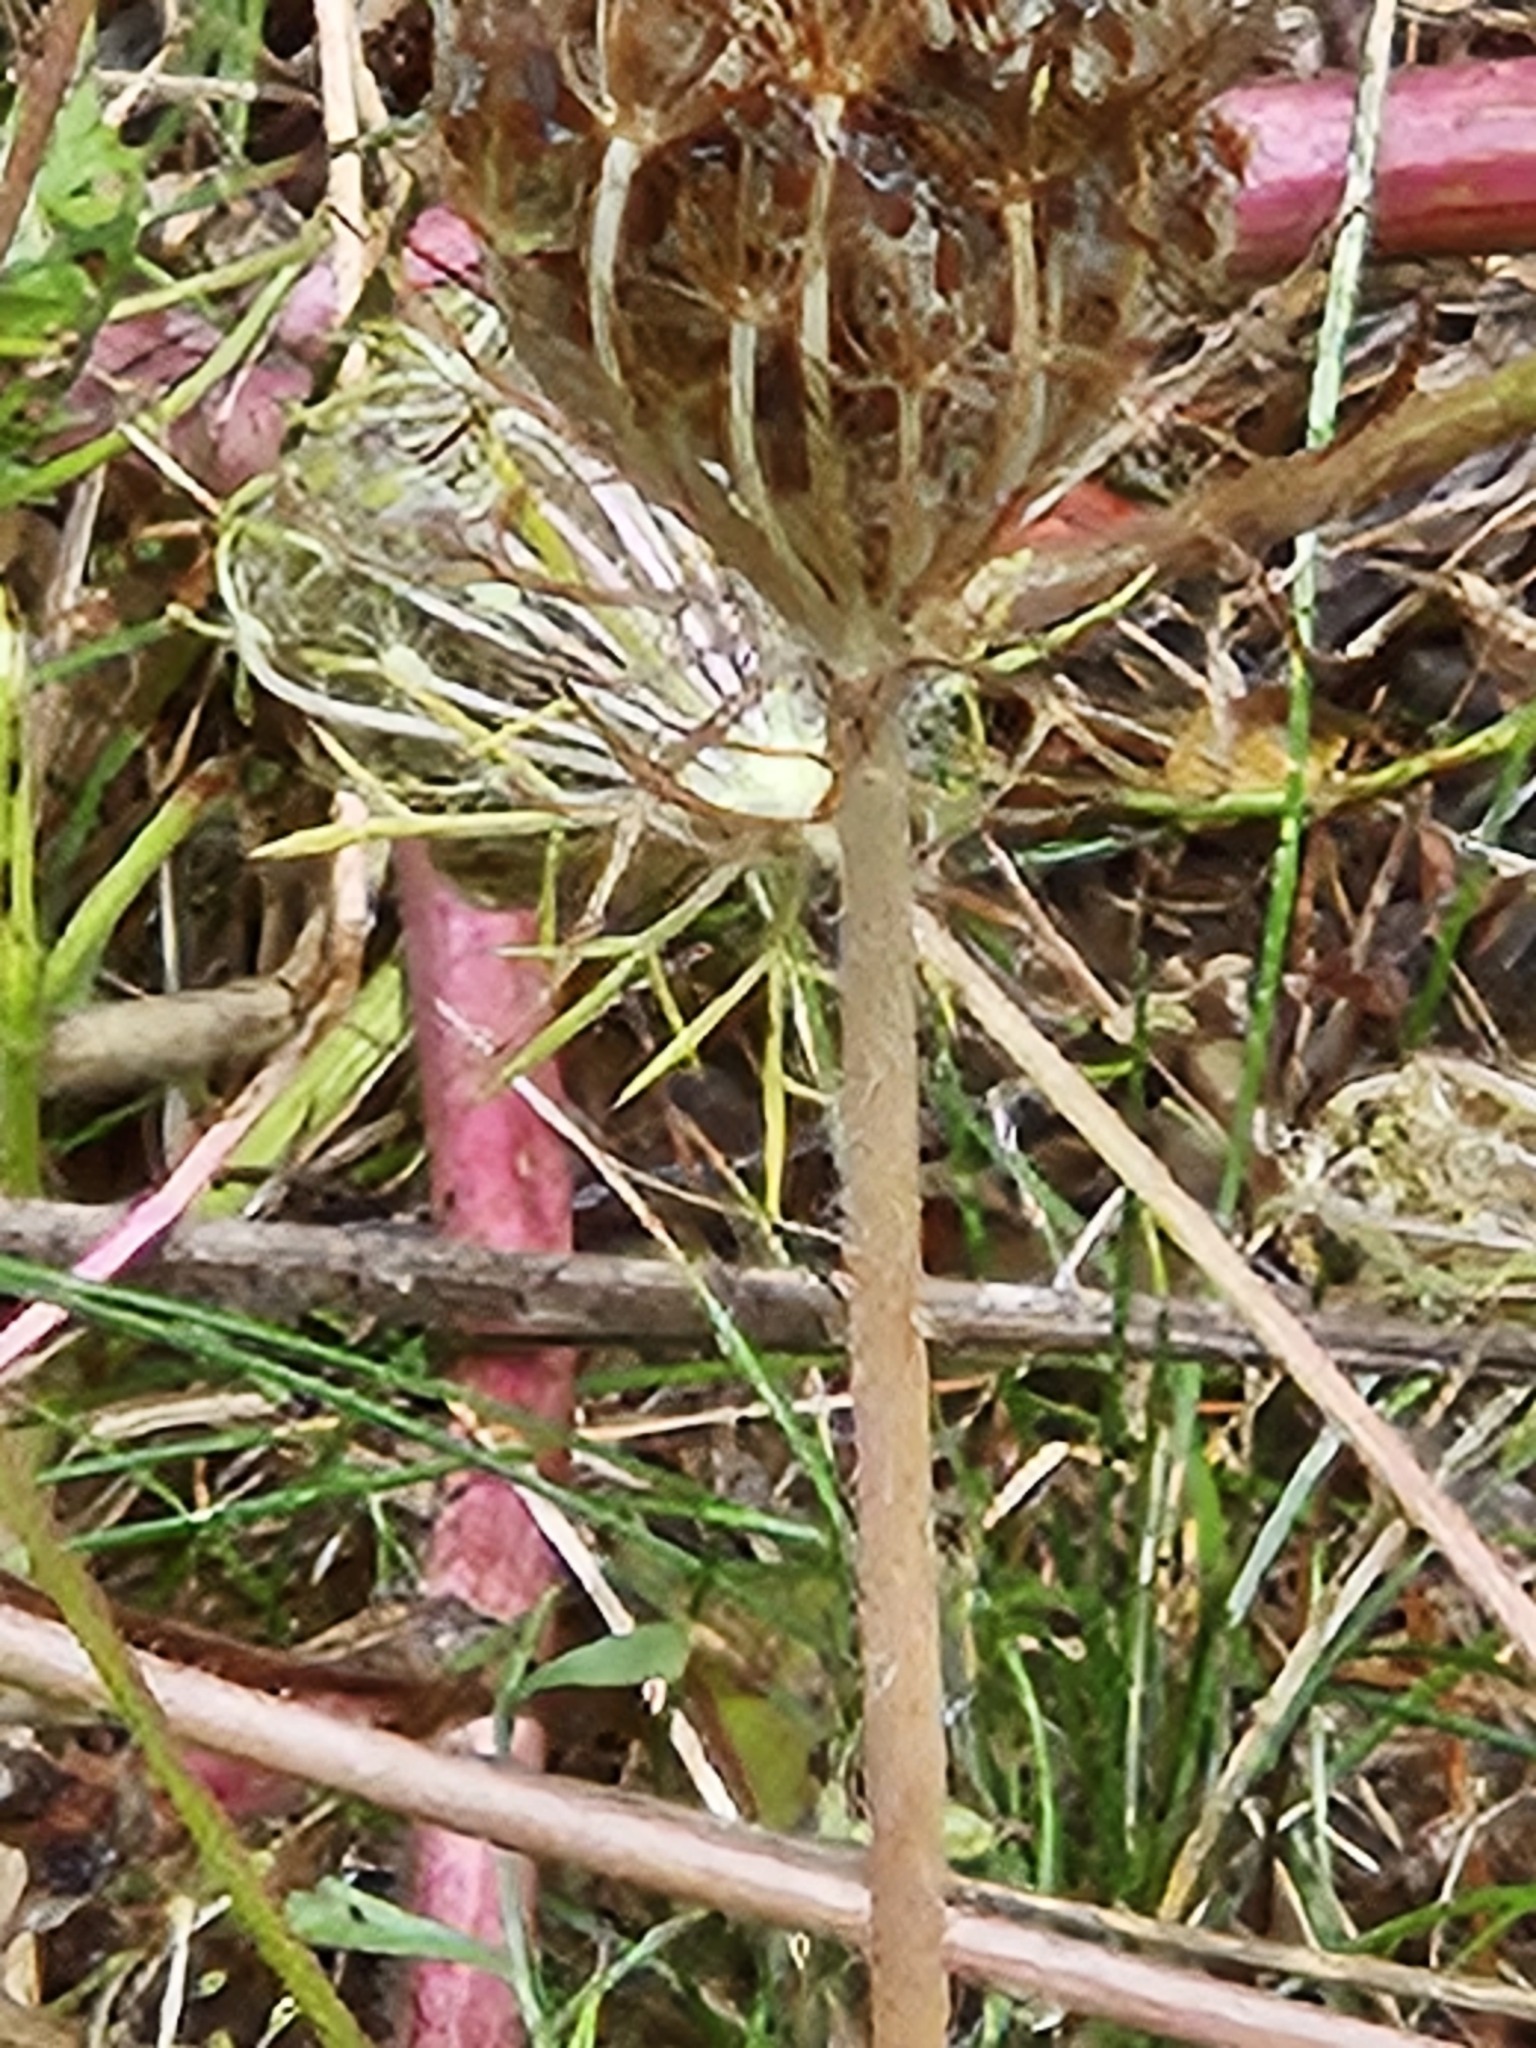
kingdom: Plantae
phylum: Tracheophyta
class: Magnoliopsida
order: Apiales
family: Apiaceae
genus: Daucus
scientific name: Daucus carota
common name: Wild carrot
